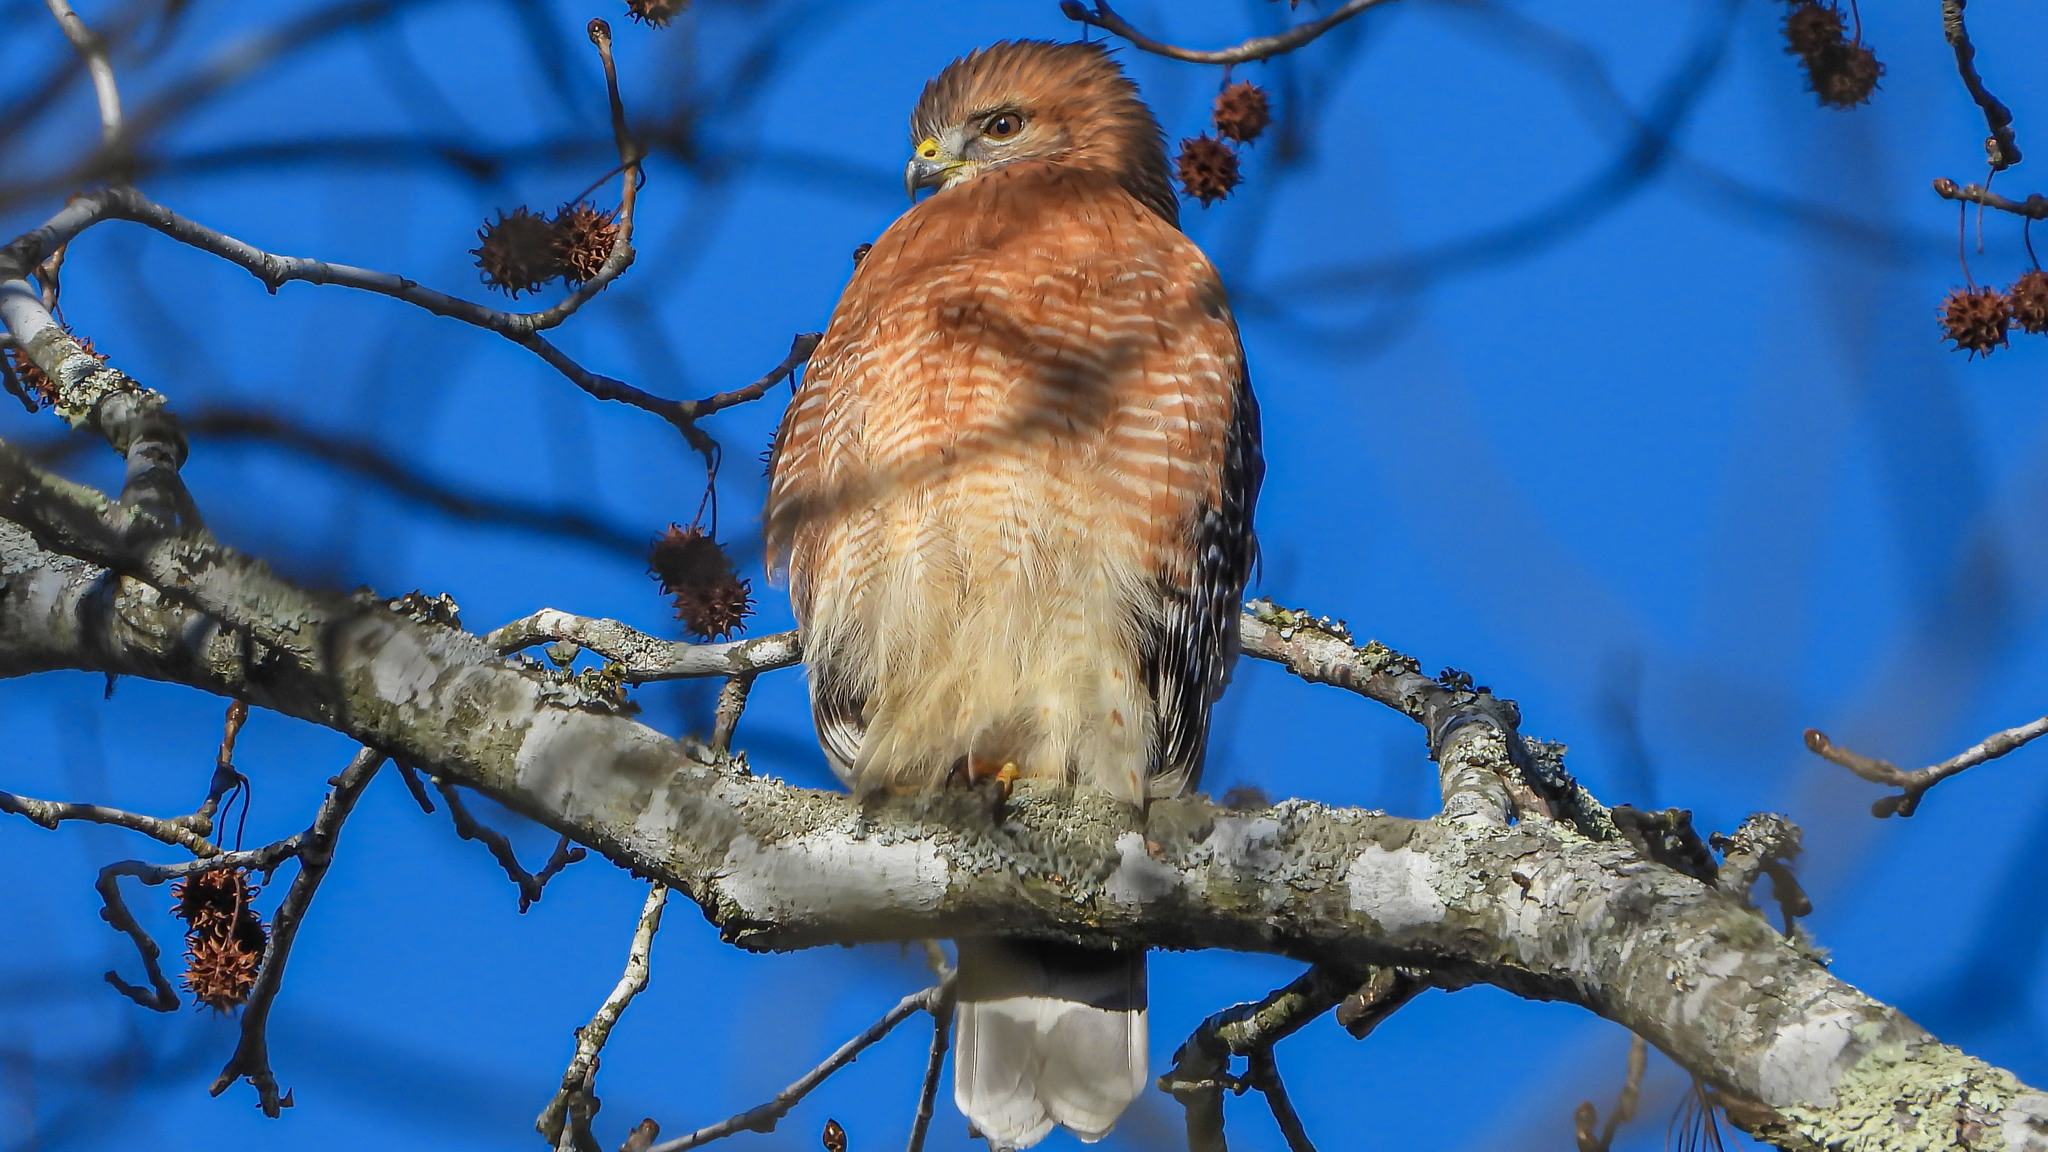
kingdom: Animalia
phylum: Chordata
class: Aves
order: Accipitriformes
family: Accipitridae
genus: Buteo
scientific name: Buteo lineatus
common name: Red-shouldered hawk
